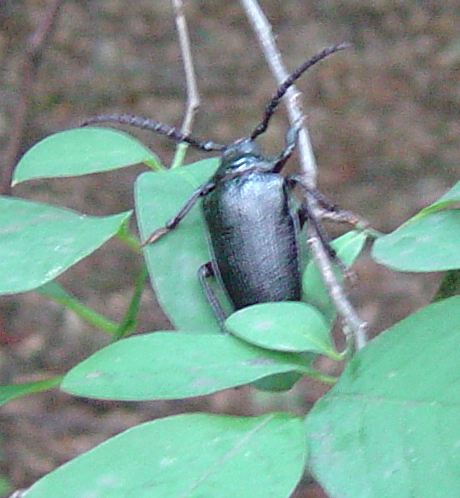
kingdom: Animalia
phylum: Arthropoda
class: Insecta
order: Coleoptera
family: Cerambycidae
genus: Prionus
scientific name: Prionus laticollis
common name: Broad necked prionus
